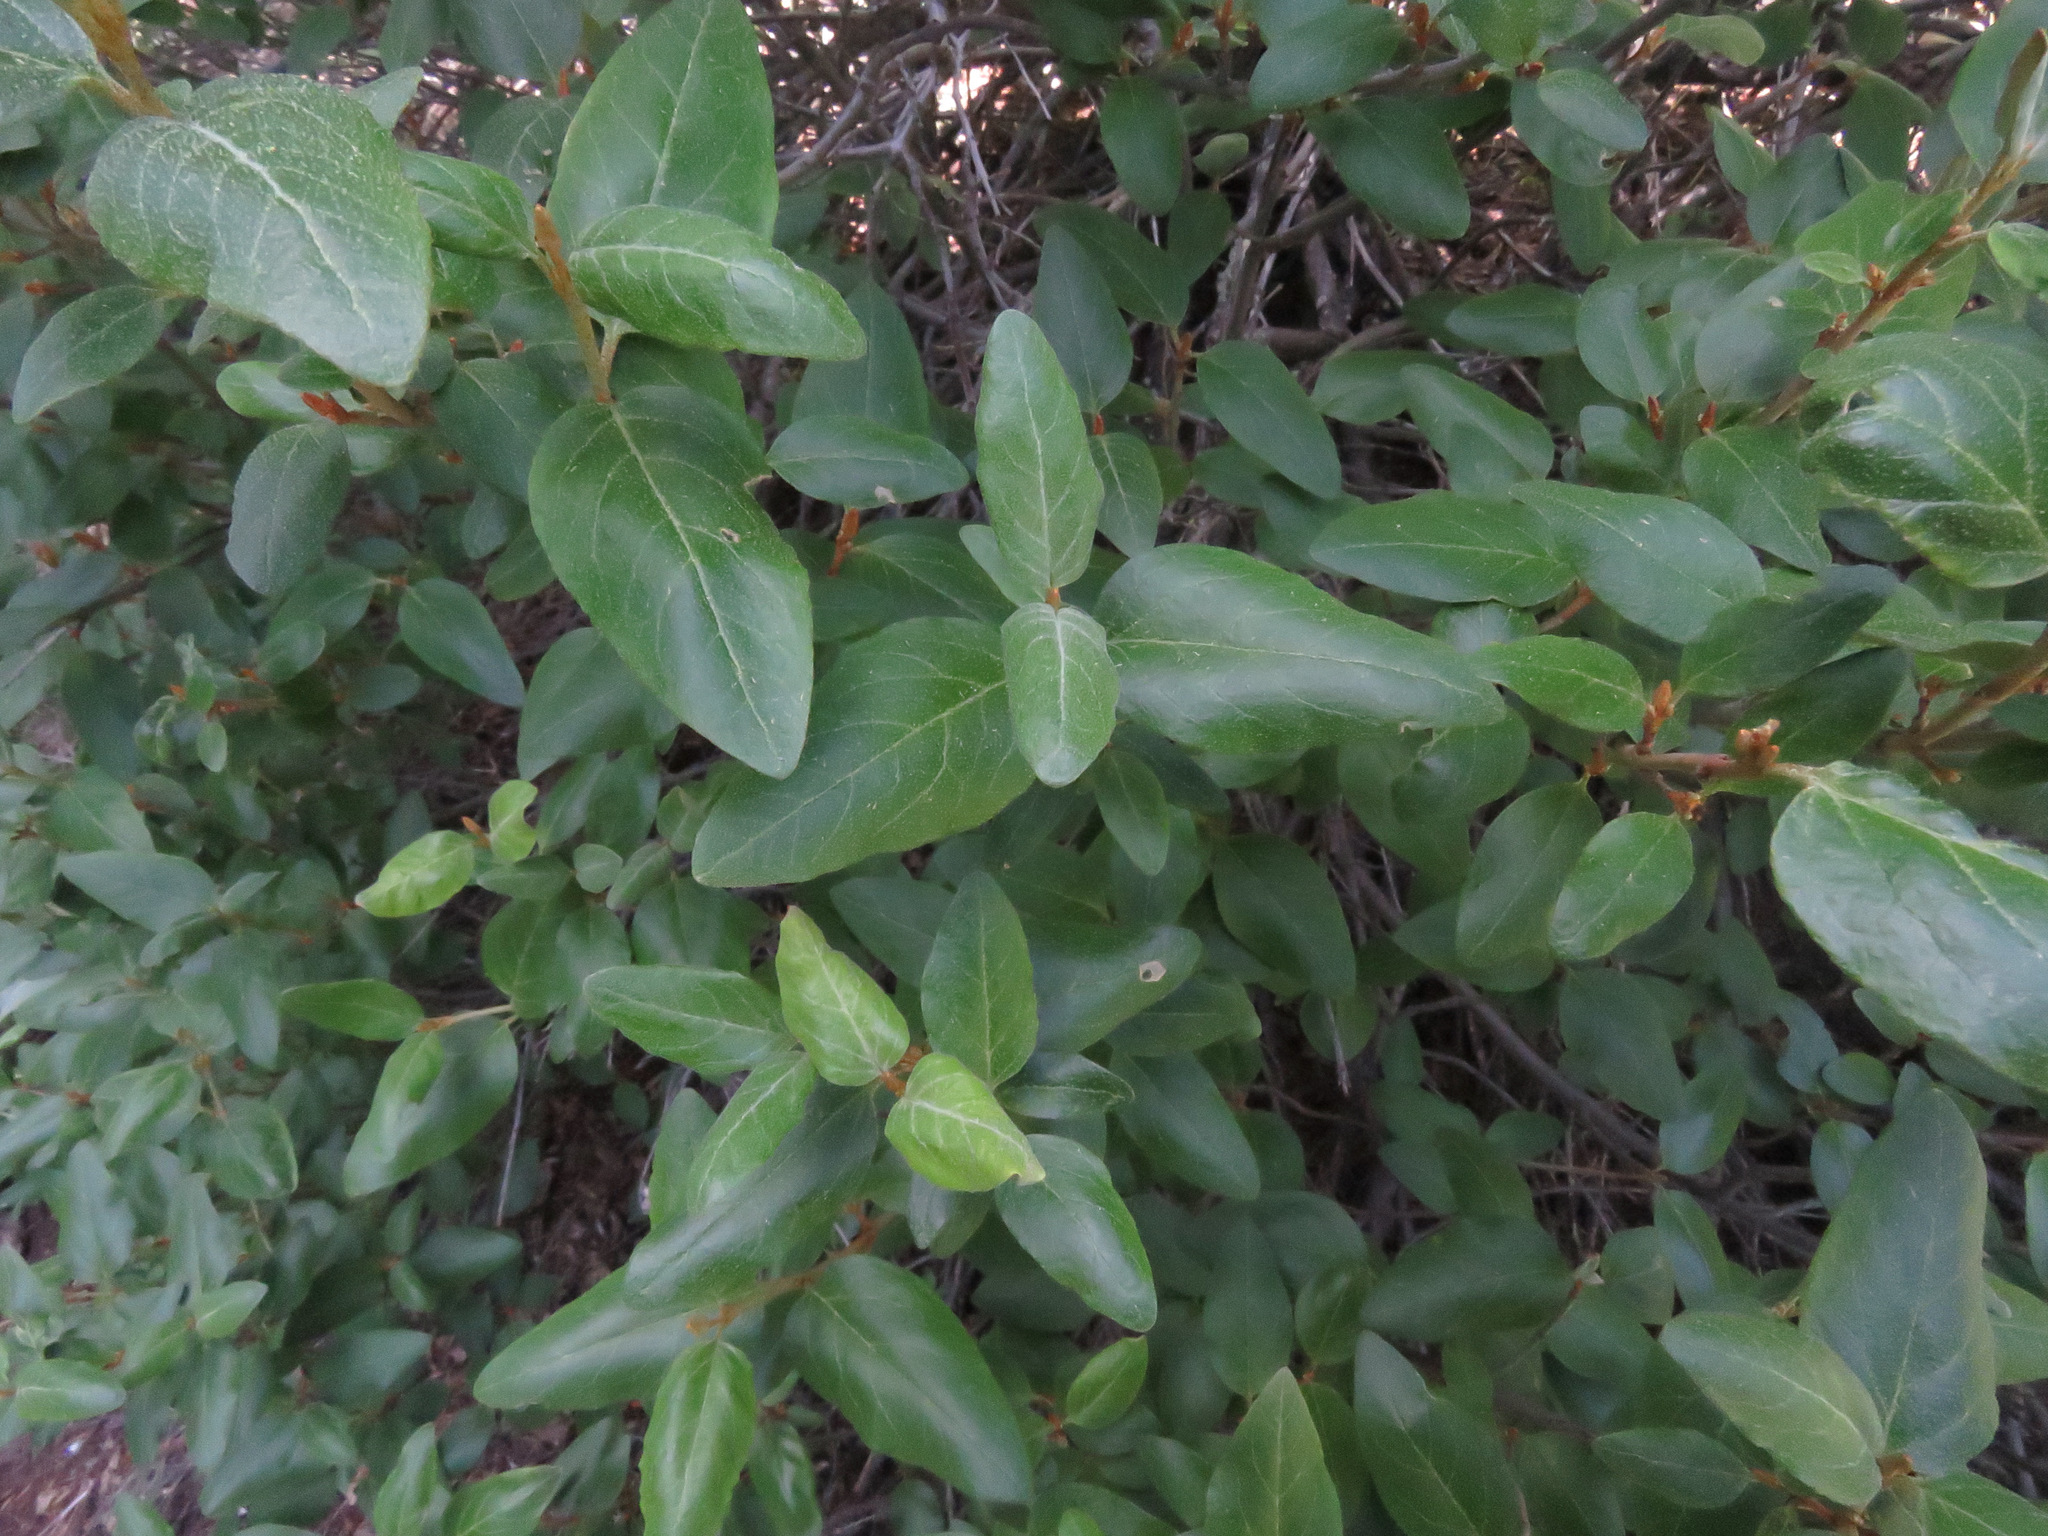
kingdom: Plantae
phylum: Tracheophyta
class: Magnoliopsida
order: Rosales
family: Elaeagnaceae
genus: Shepherdia
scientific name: Shepherdia canadensis
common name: Soapberry
